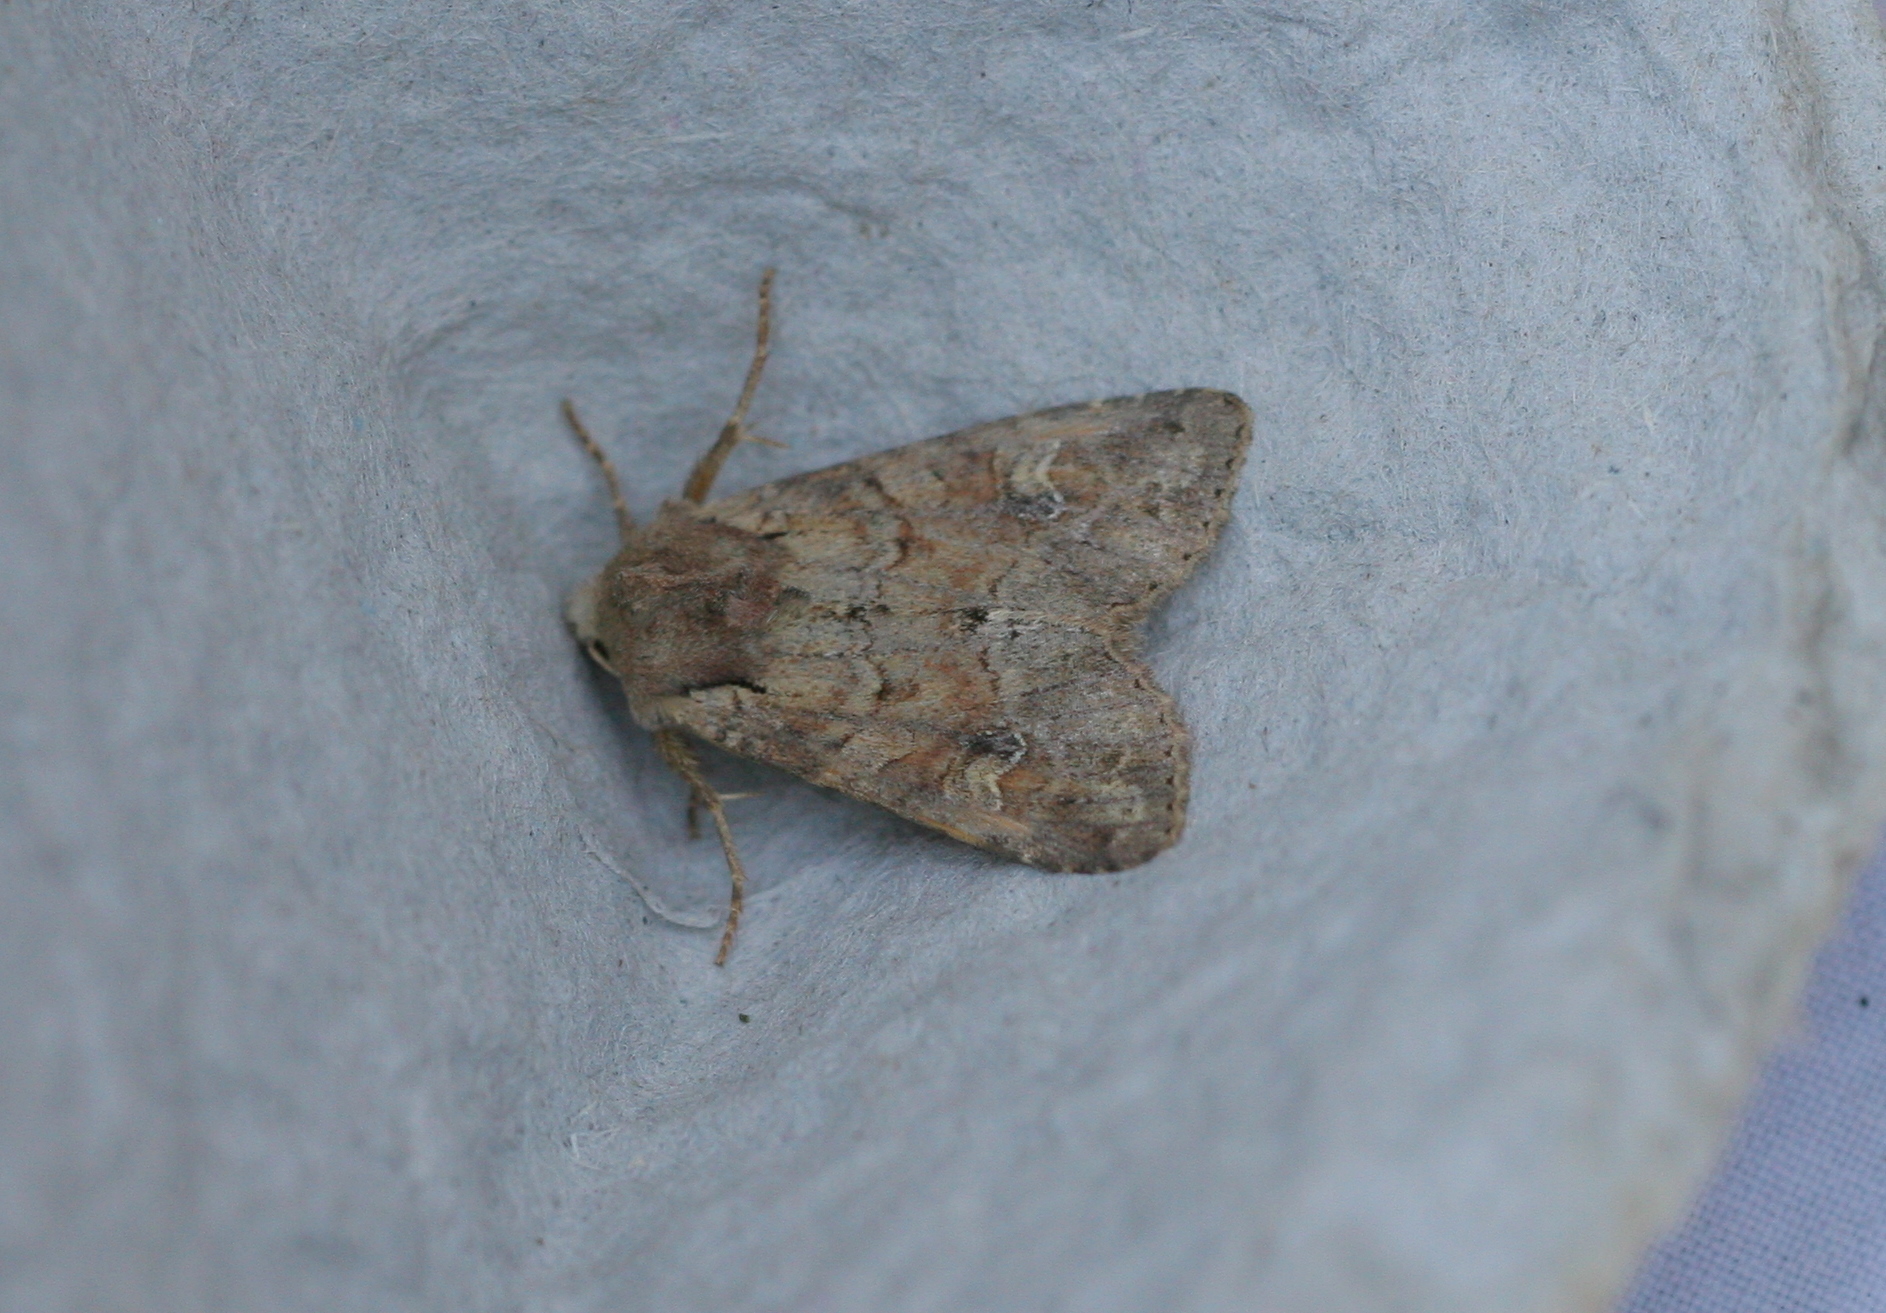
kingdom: Animalia
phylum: Arthropoda
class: Insecta
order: Lepidoptera
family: Noctuidae
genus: Apamea
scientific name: Apamea sordens
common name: Rustic shoulder-knot
